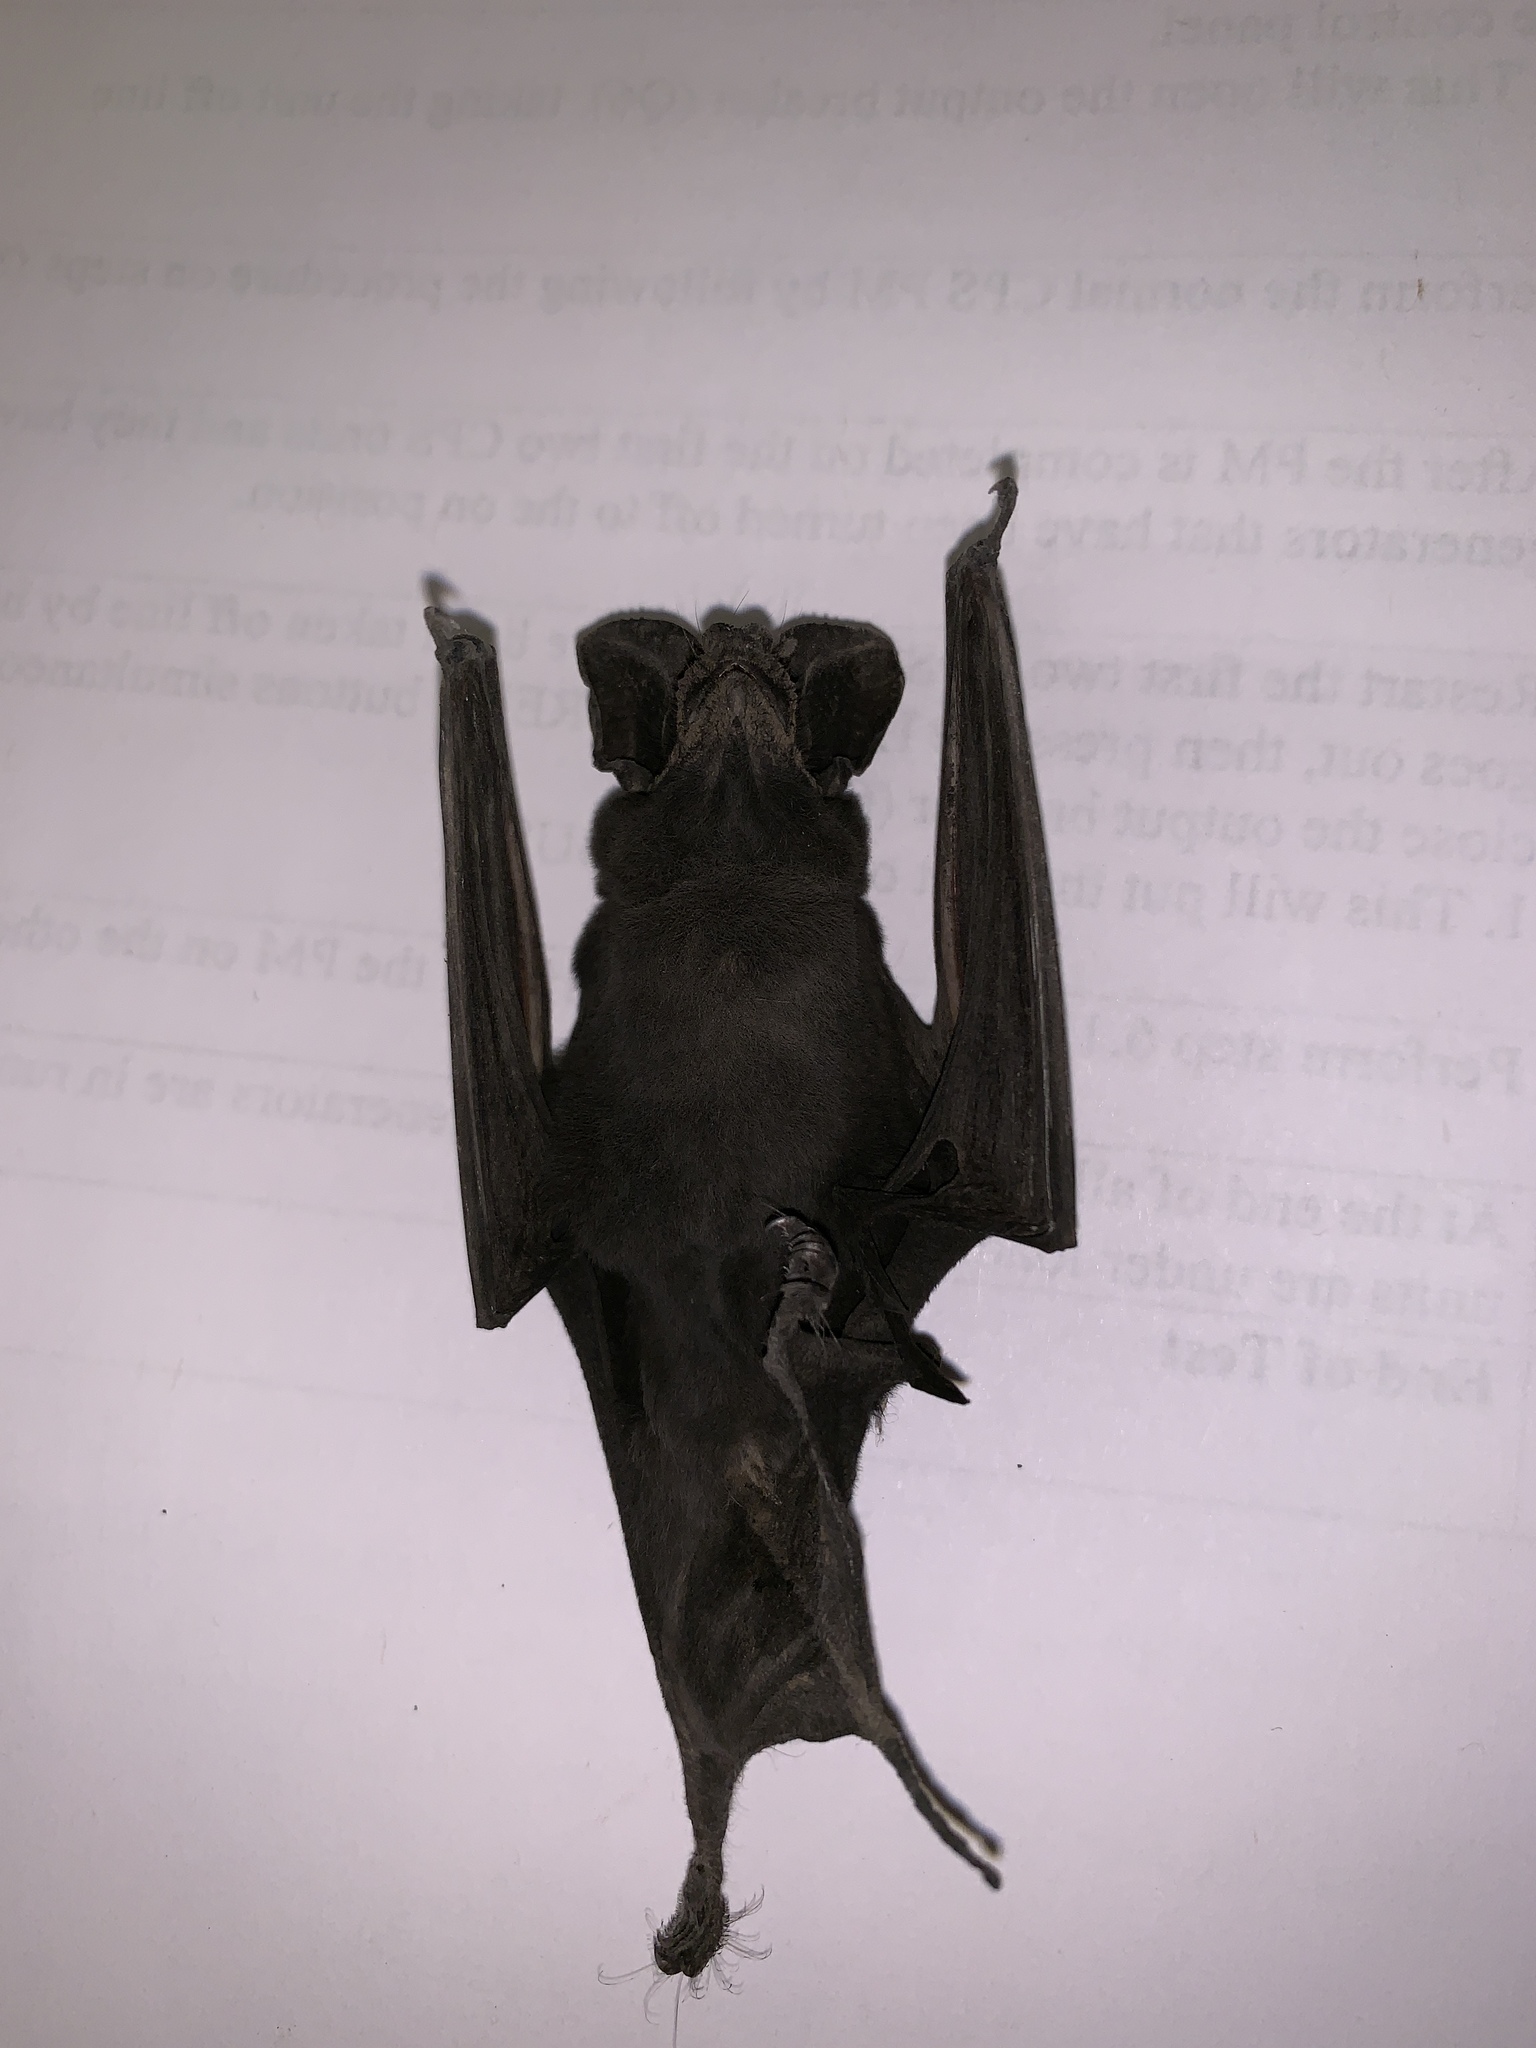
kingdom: Animalia
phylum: Chordata
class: Mammalia
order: Chiroptera
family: Molossidae
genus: Tadarida
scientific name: Tadarida brasiliensis
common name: Mexican free-tailed bat
